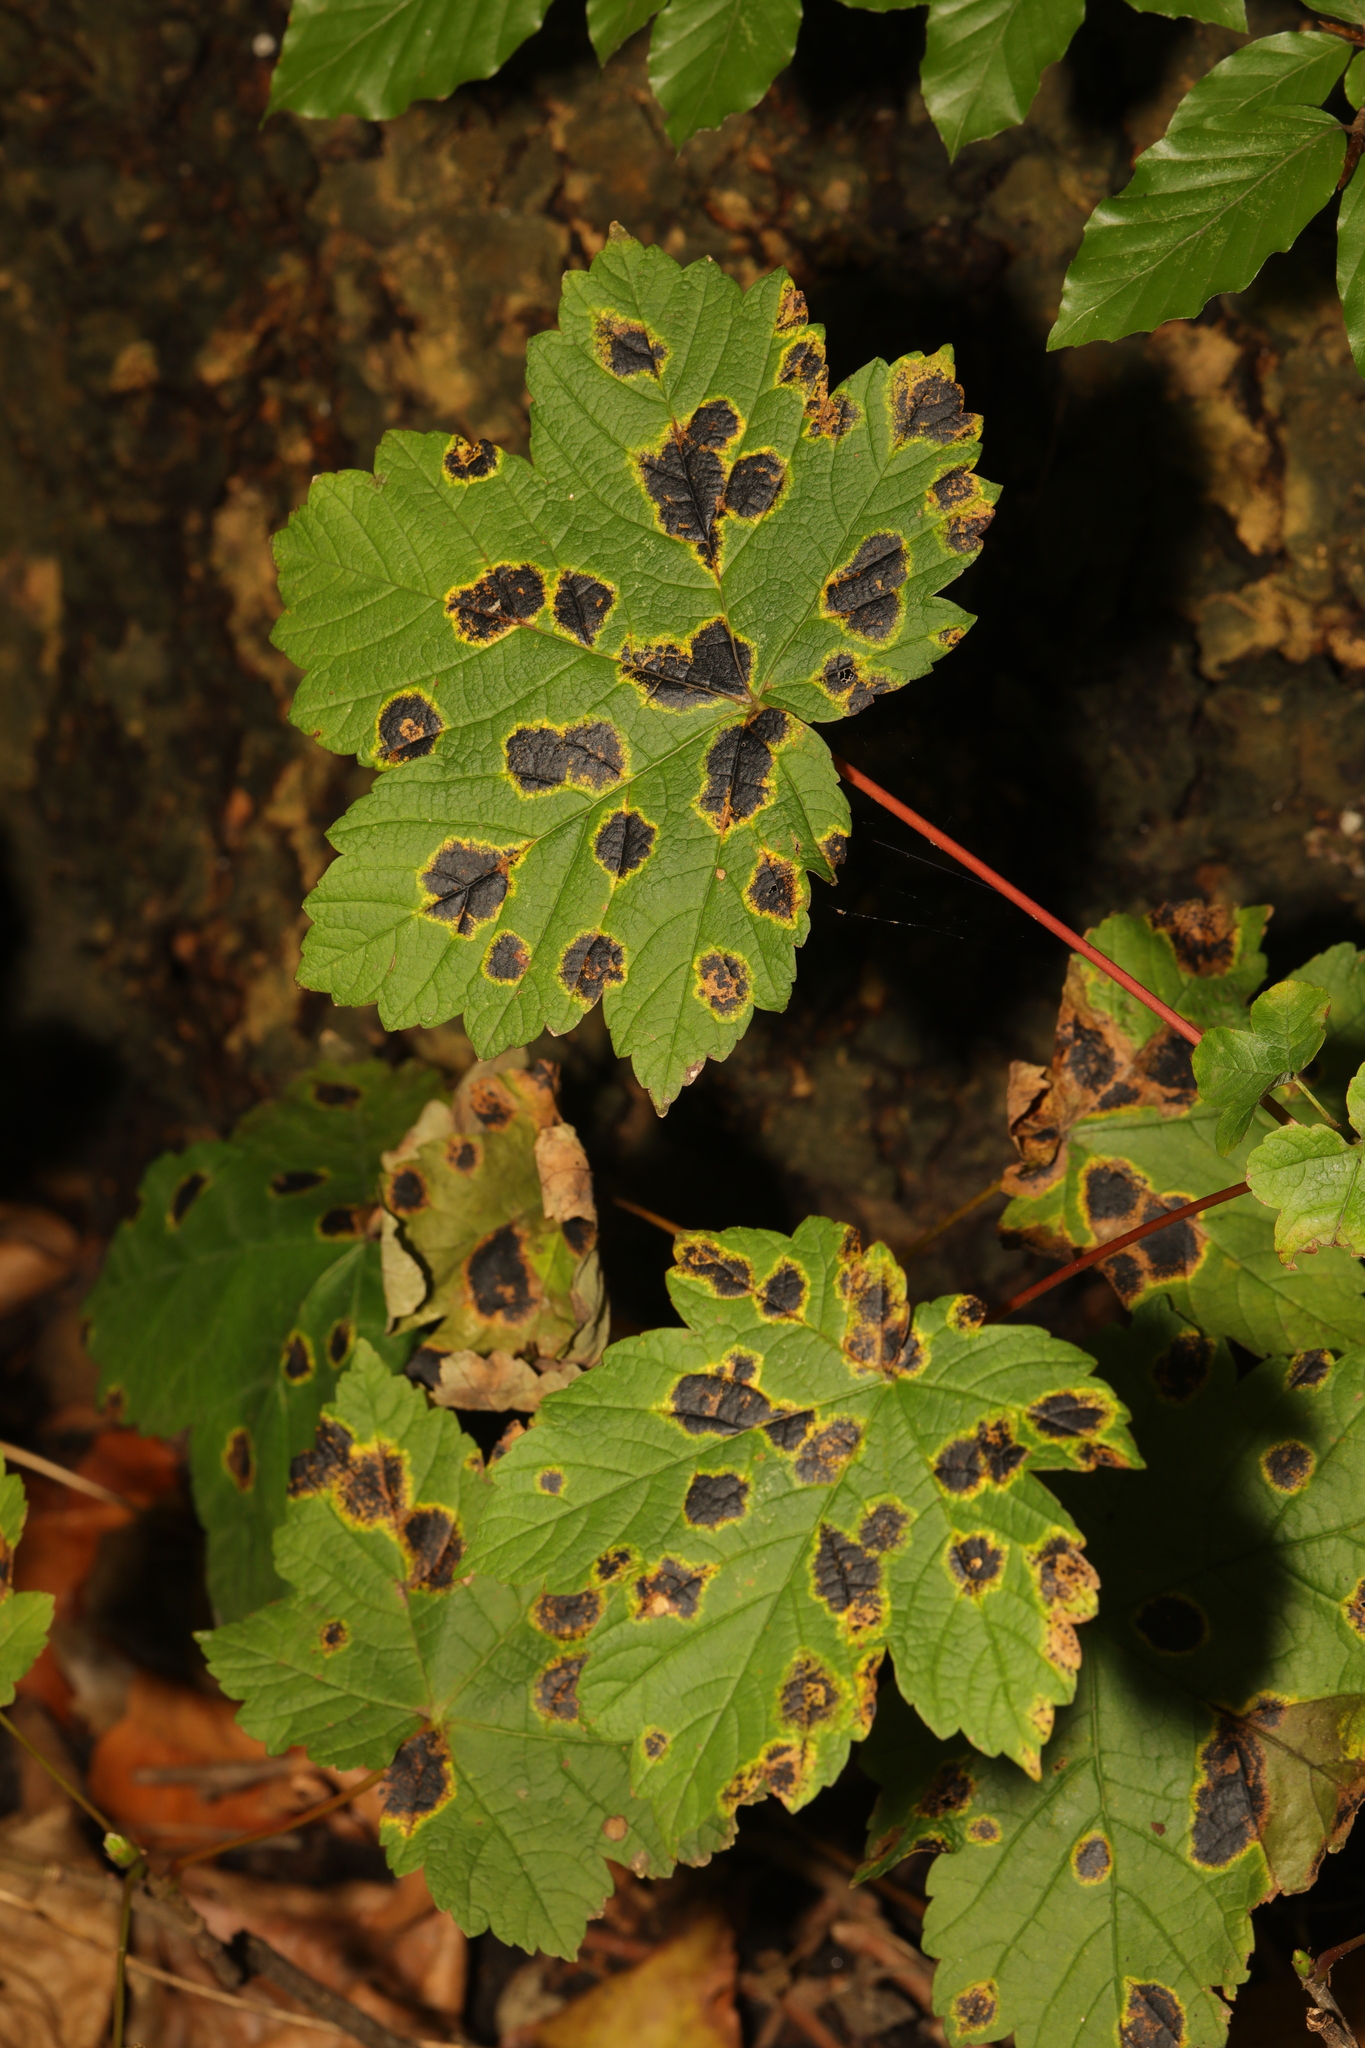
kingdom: Plantae
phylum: Tracheophyta
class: Magnoliopsida
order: Sapindales
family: Sapindaceae
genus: Acer
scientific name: Acer pseudoplatanus
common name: Sycamore
